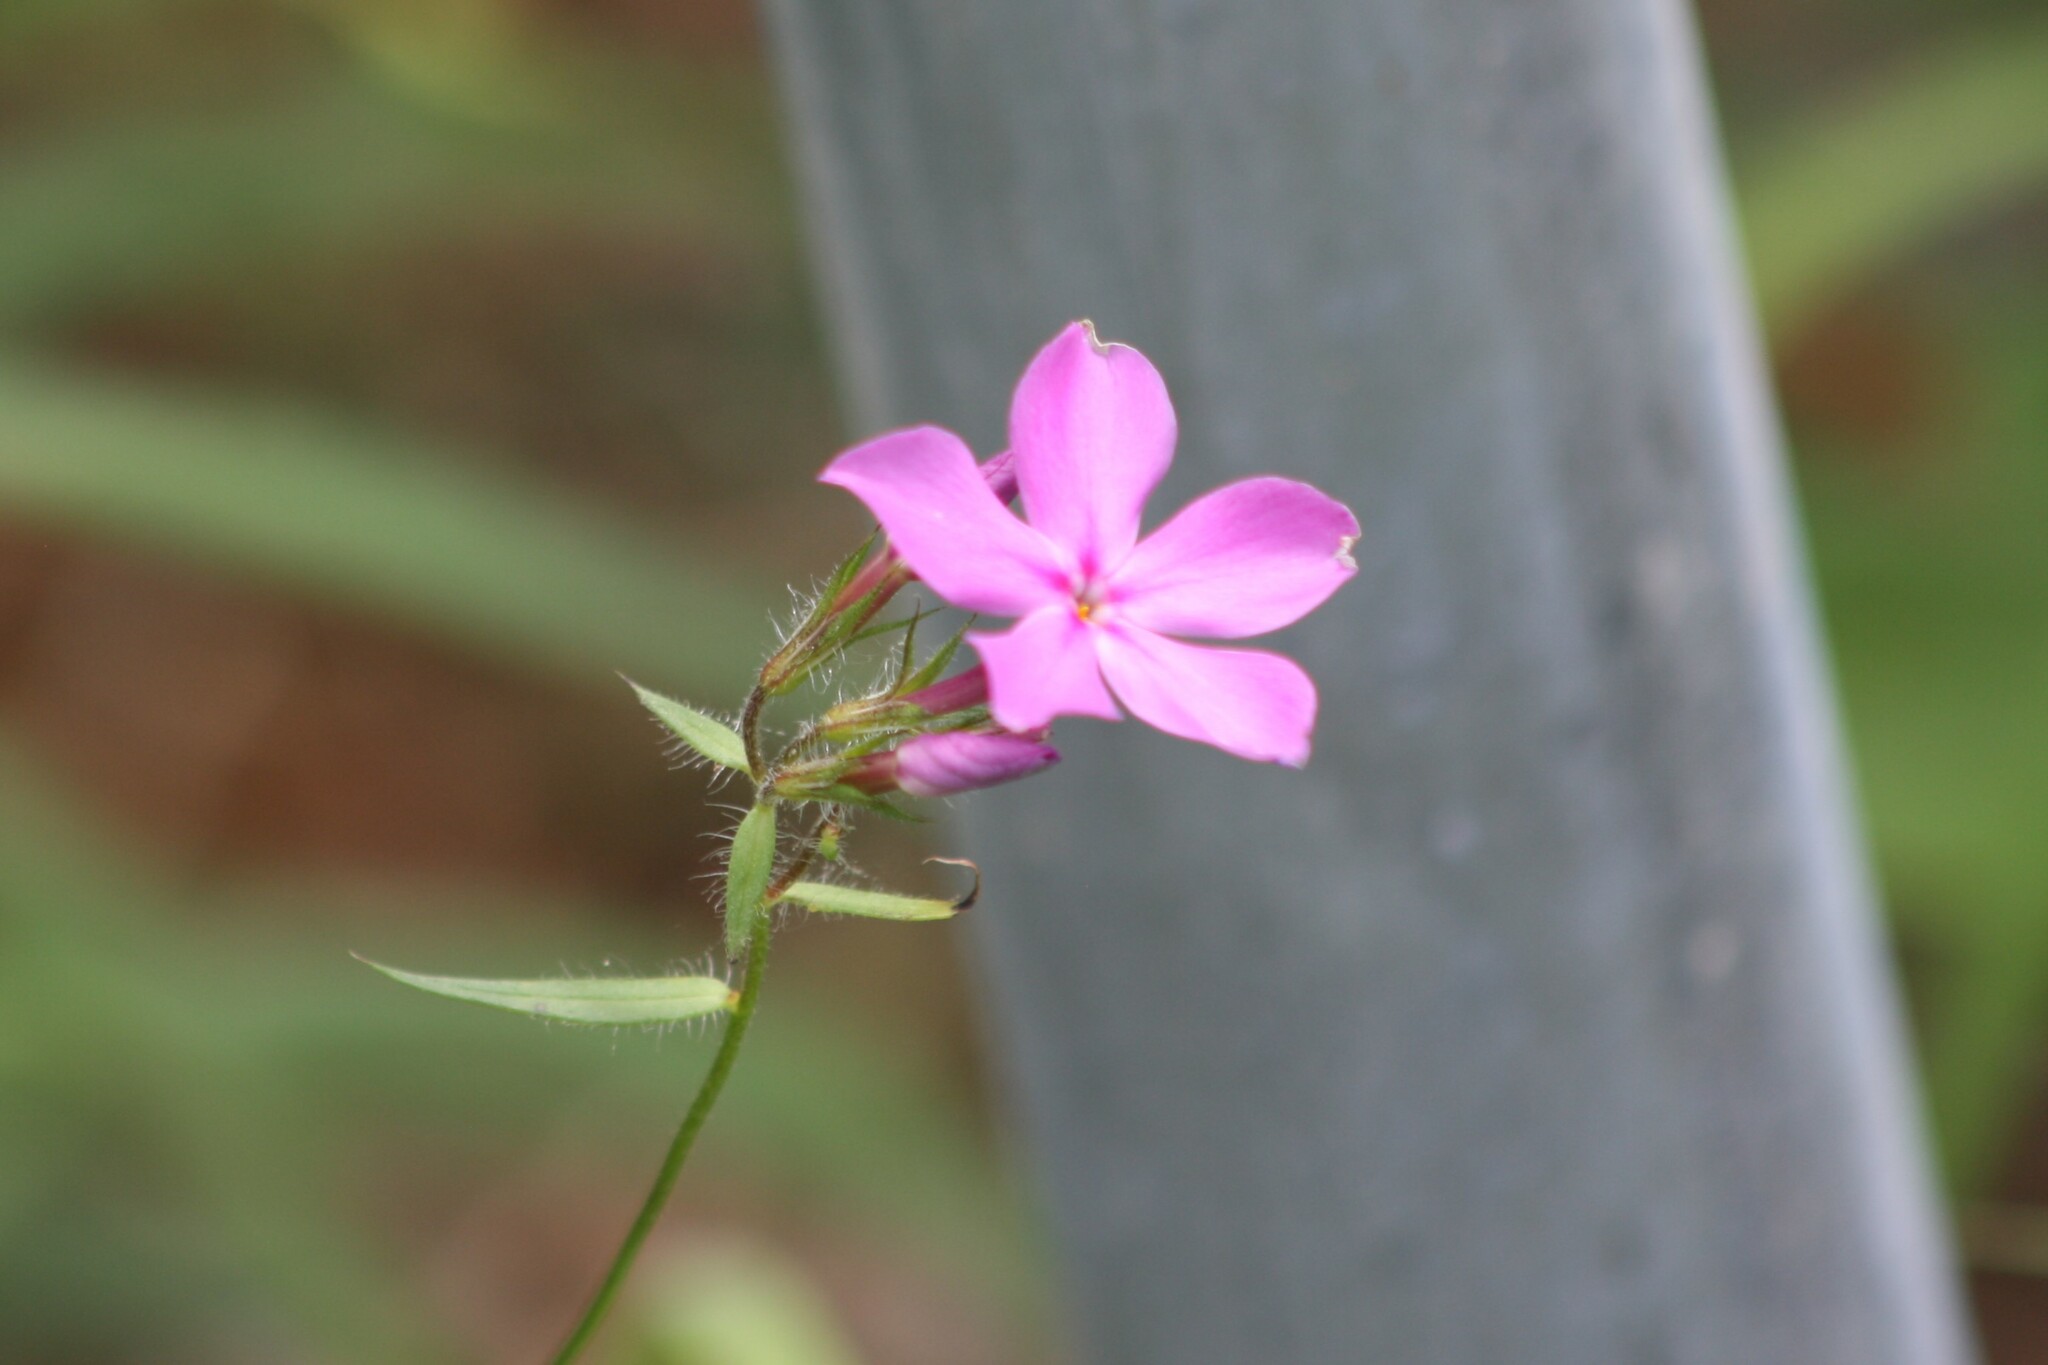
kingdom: Plantae
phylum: Tracheophyta
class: Magnoliopsida
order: Ericales
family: Polemoniaceae
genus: Phlox
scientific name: Phlox pilosa
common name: Prairie phlox
